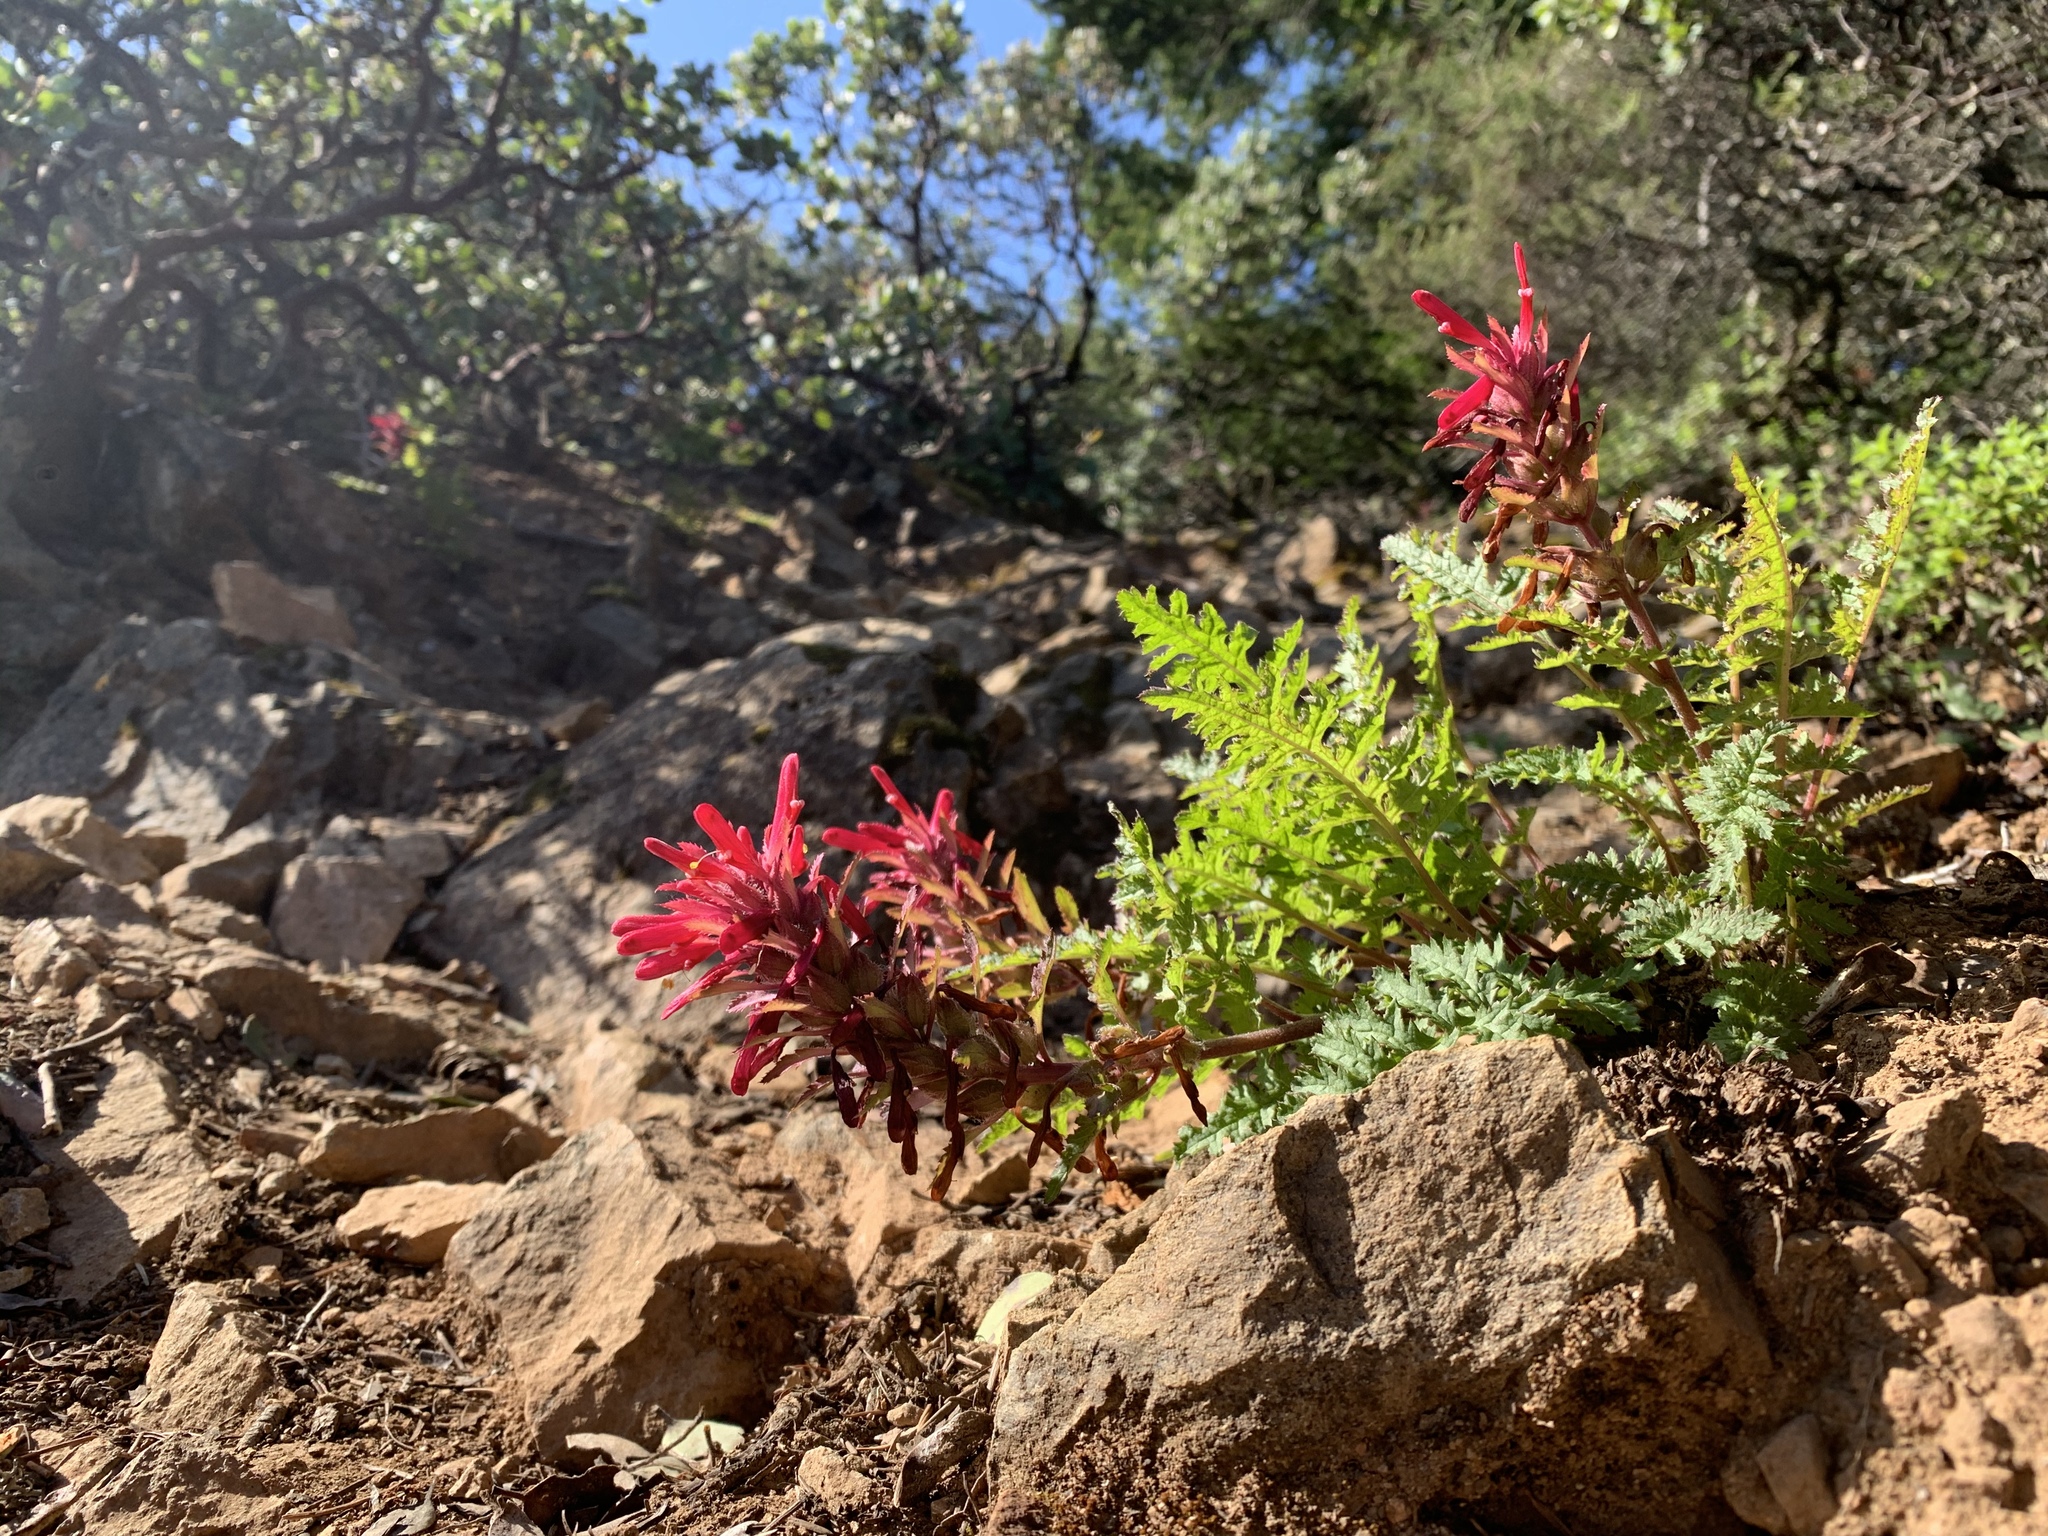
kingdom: Plantae
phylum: Tracheophyta
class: Magnoliopsida
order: Lamiales
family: Orobanchaceae
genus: Pedicularis
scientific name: Pedicularis densiflora
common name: Indian warrior
